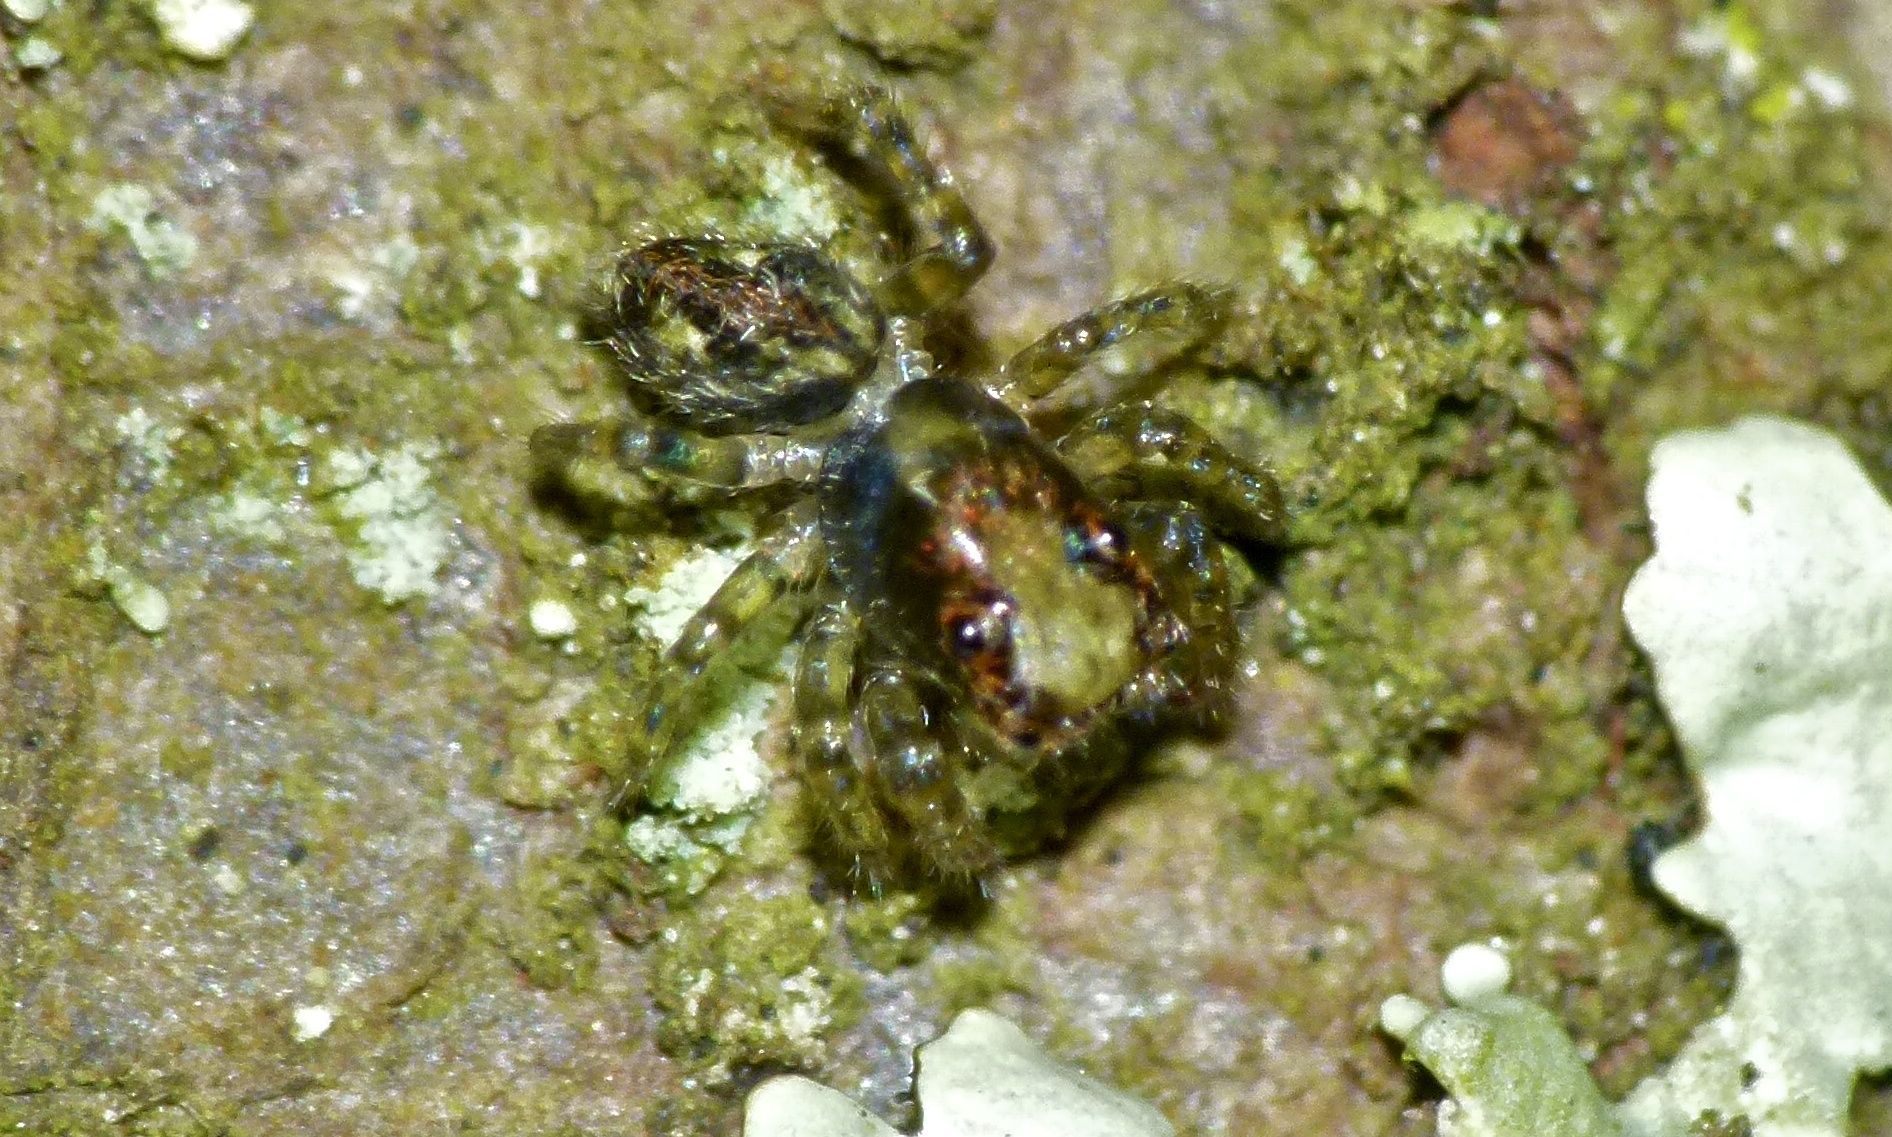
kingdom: Animalia
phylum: Arthropoda
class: Arachnida
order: Araneae
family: Salticidae
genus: Hinewaia
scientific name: Hinewaia embolica
